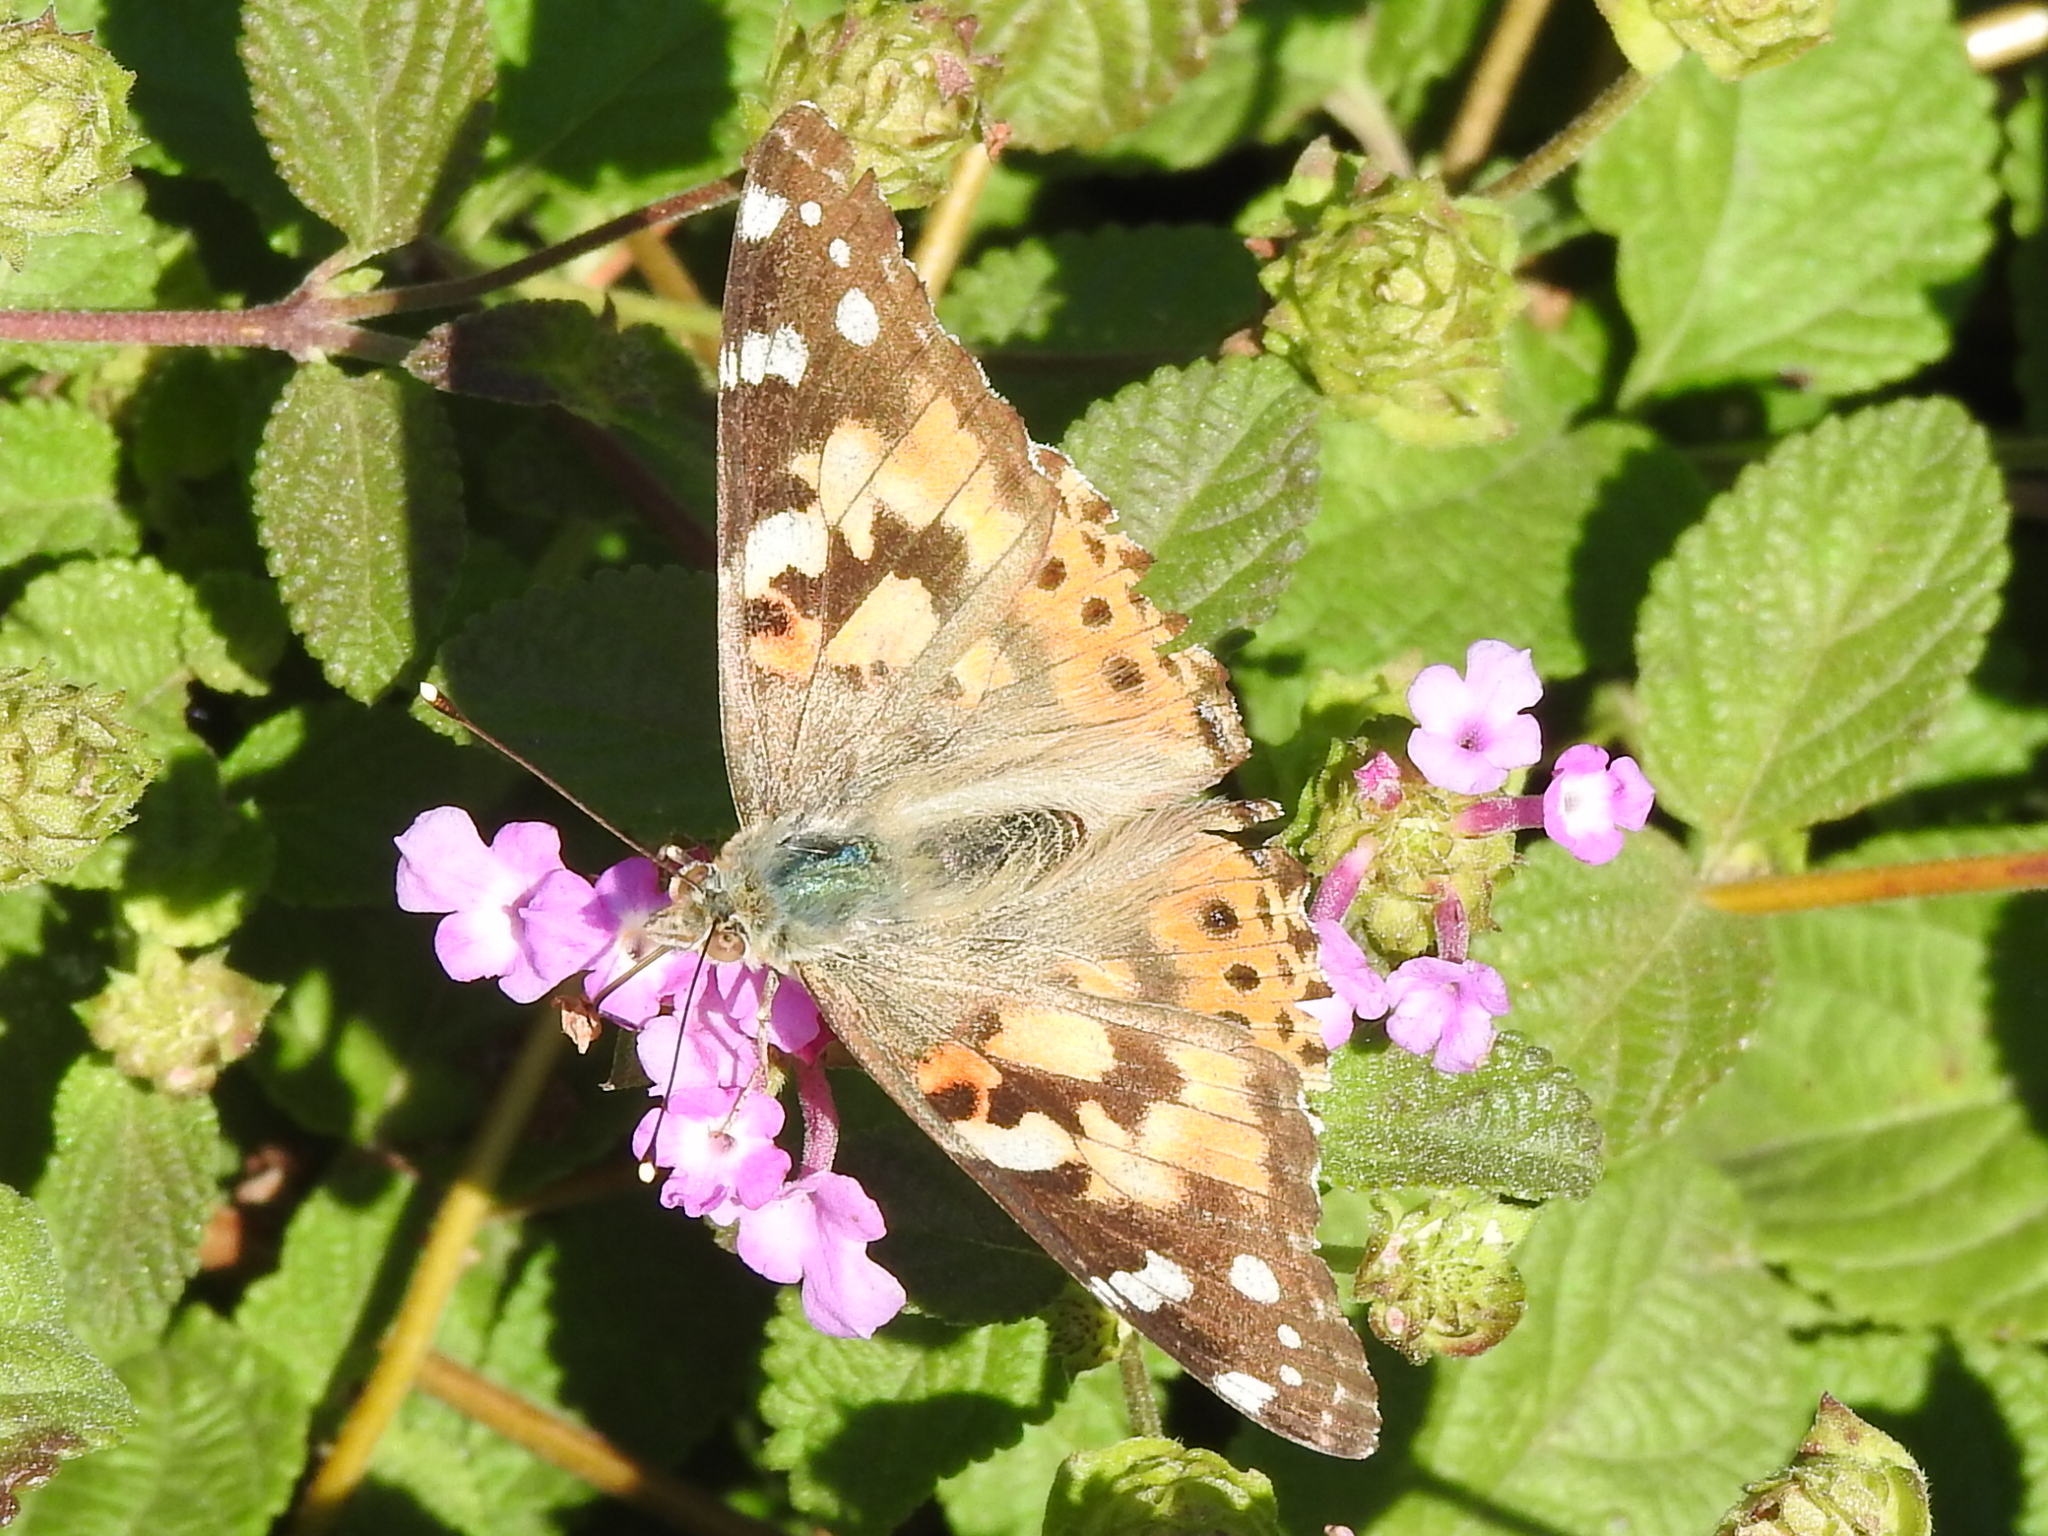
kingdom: Animalia
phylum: Arthropoda
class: Insecta
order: Lepidoptera
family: Nymphalidae
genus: Vanessa
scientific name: Vanessa cardui
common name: Painted lady
